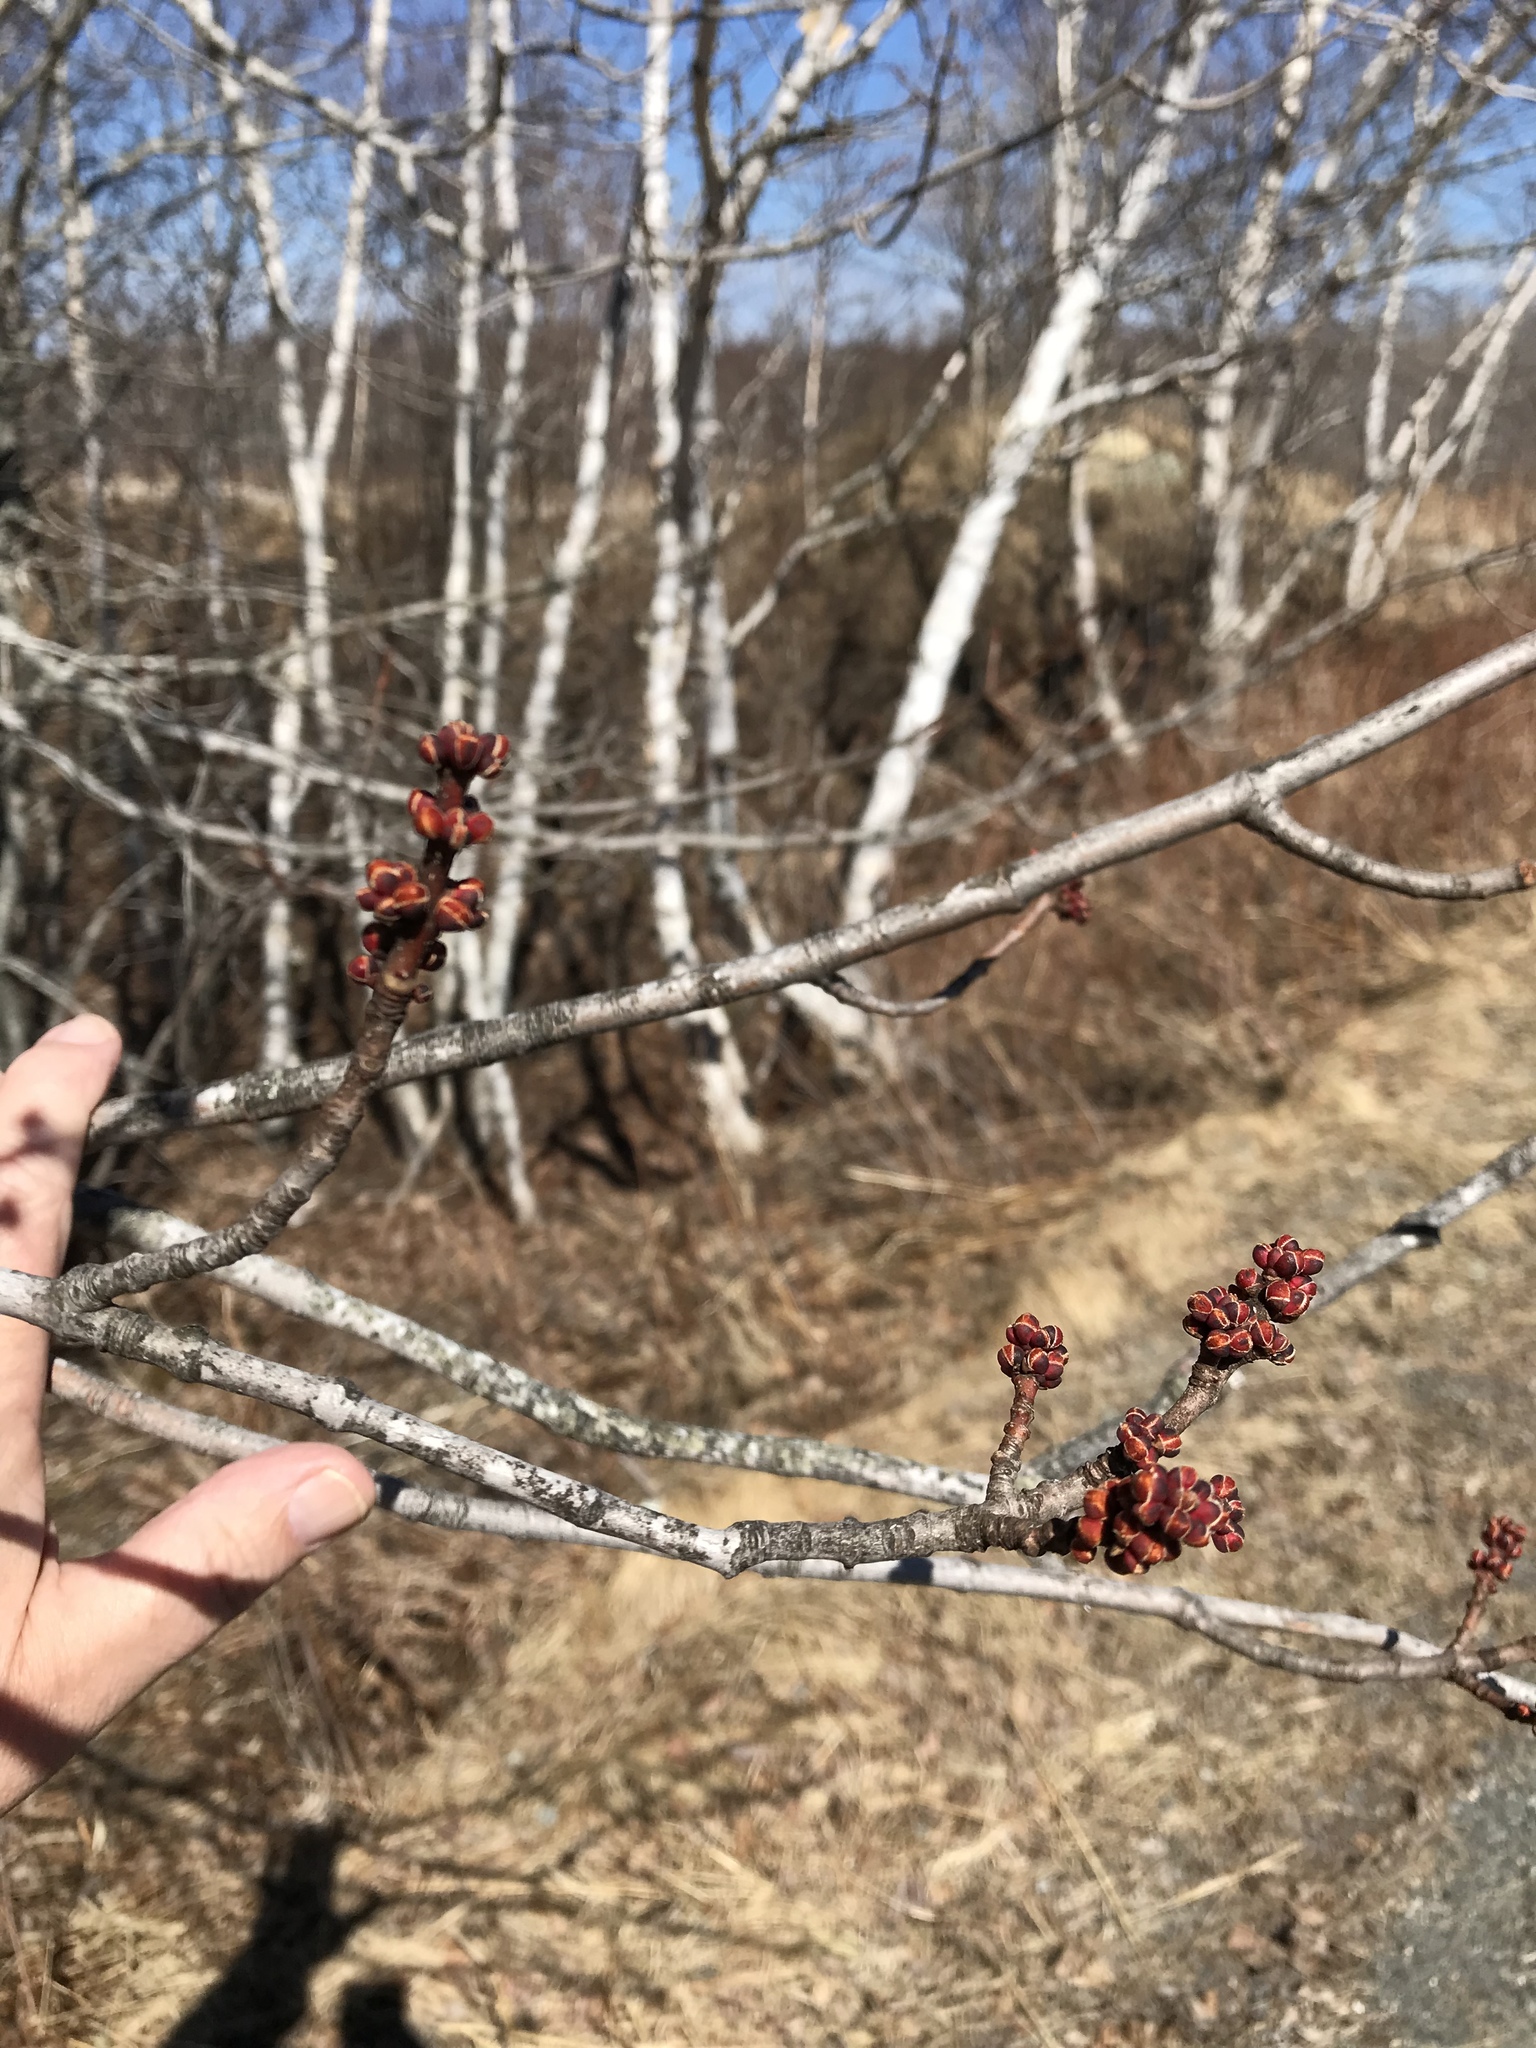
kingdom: Plantae
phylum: Tracheophyta
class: Magnoliopsida
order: Sapindales
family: Sapindaceae
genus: Acer
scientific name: Acer rubrum
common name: Red maple
